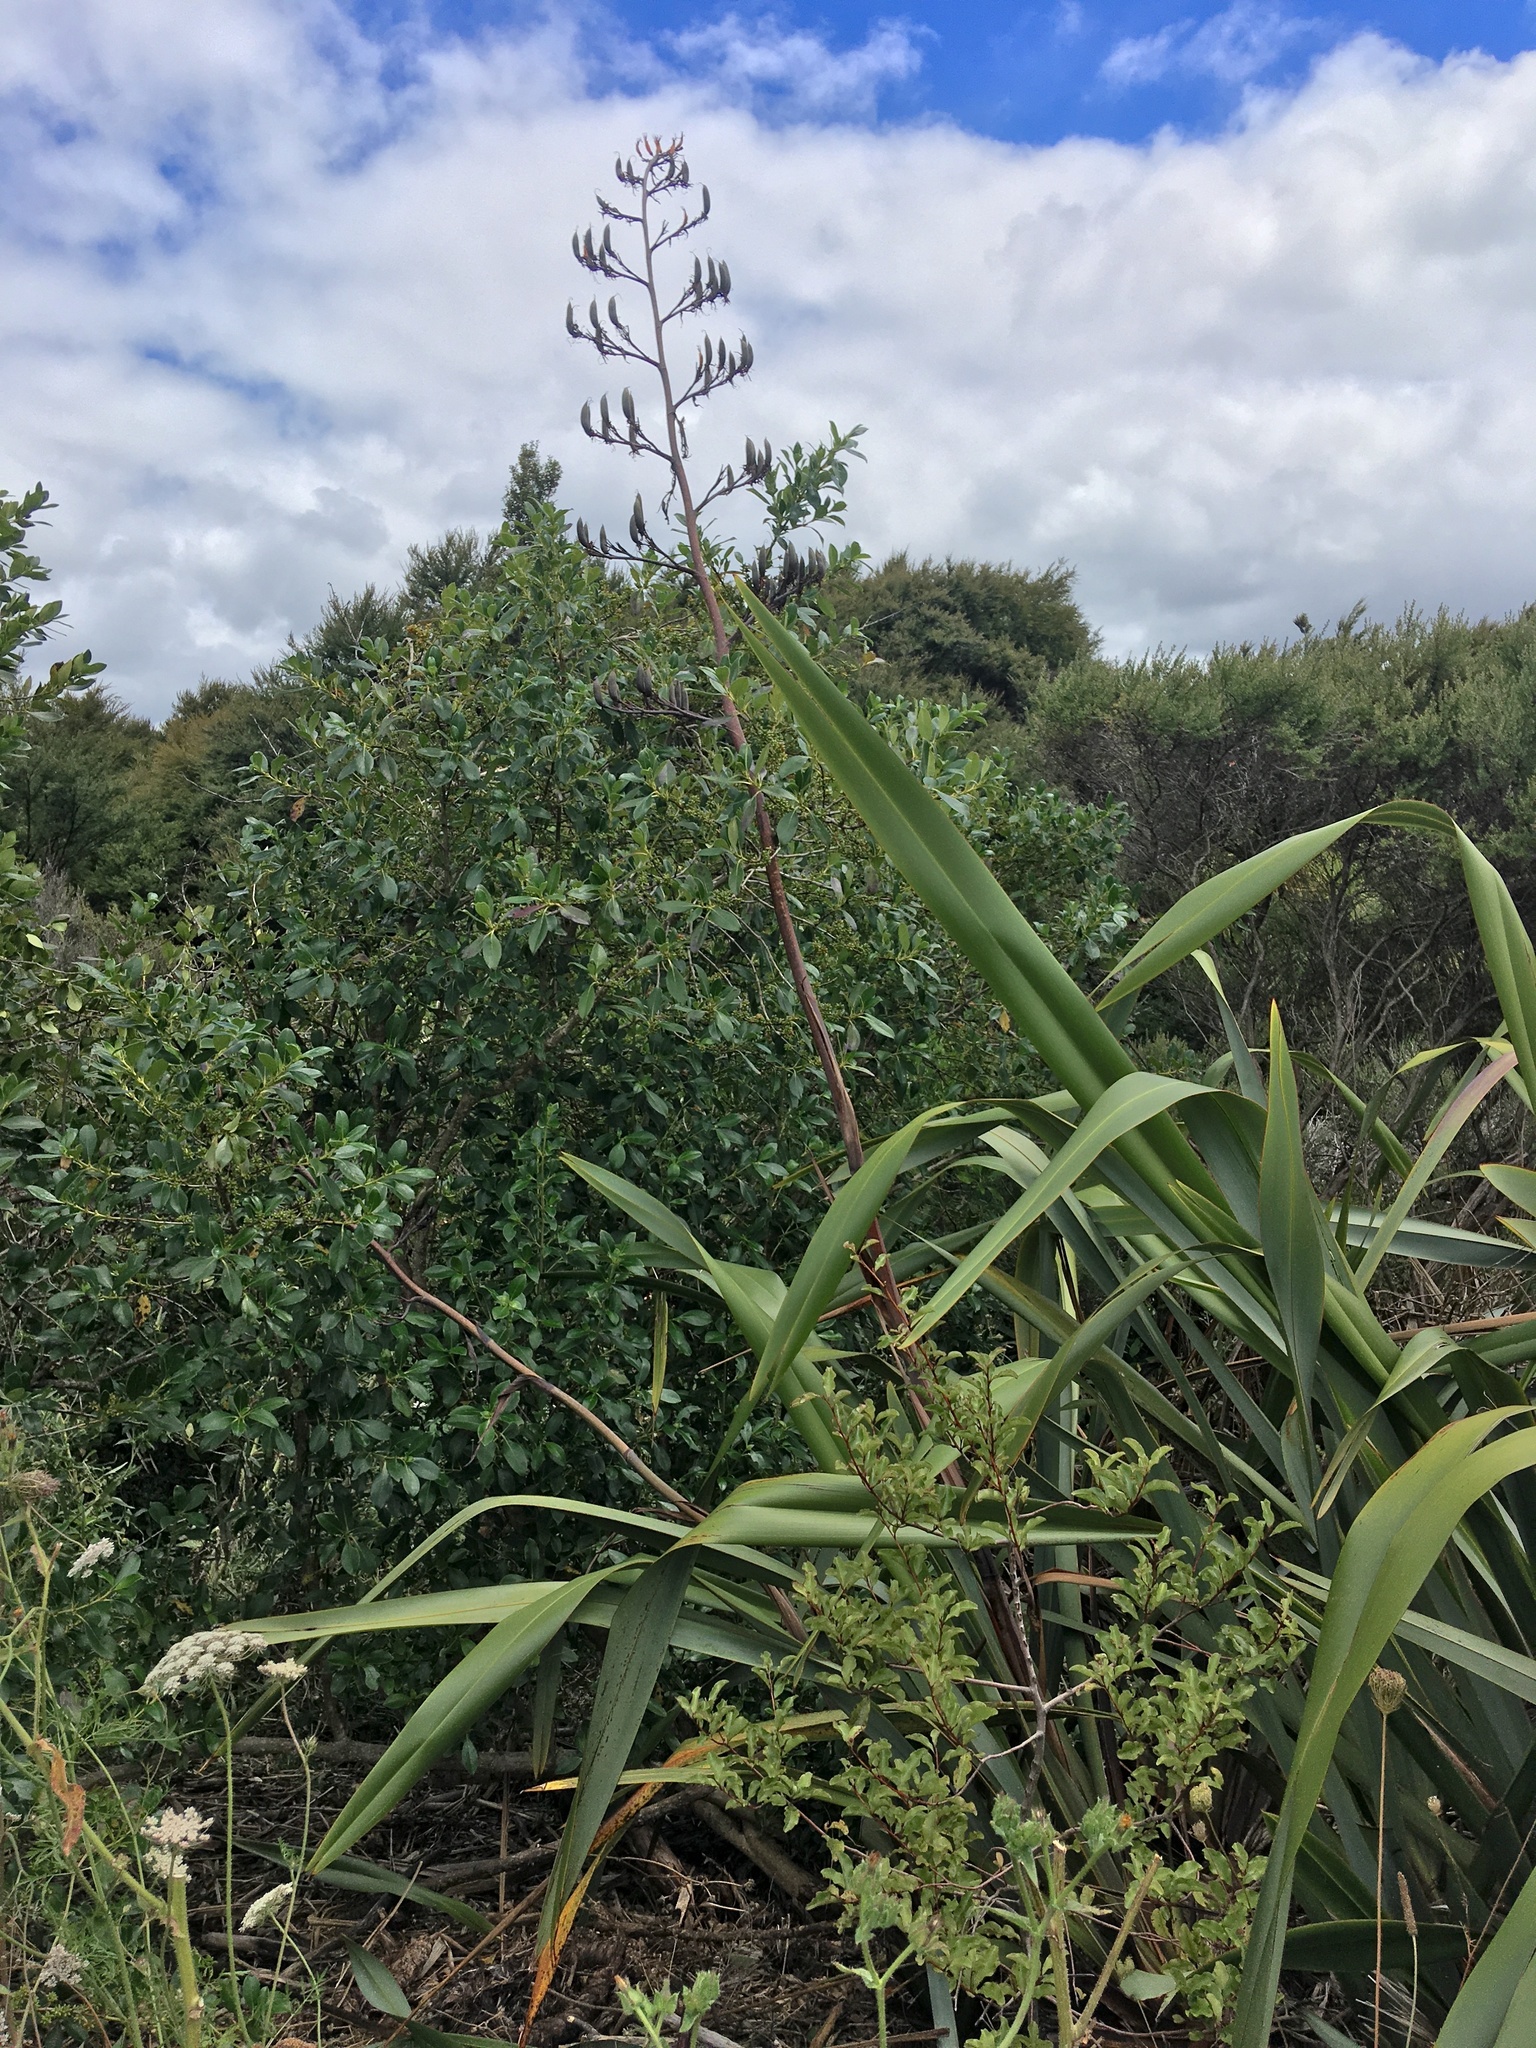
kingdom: Plantae
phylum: Tracheophyta
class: Liliopsida
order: Asparagales
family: Asphodelaceae
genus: Phormium
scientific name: Phormium tenax
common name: New zealand flax
